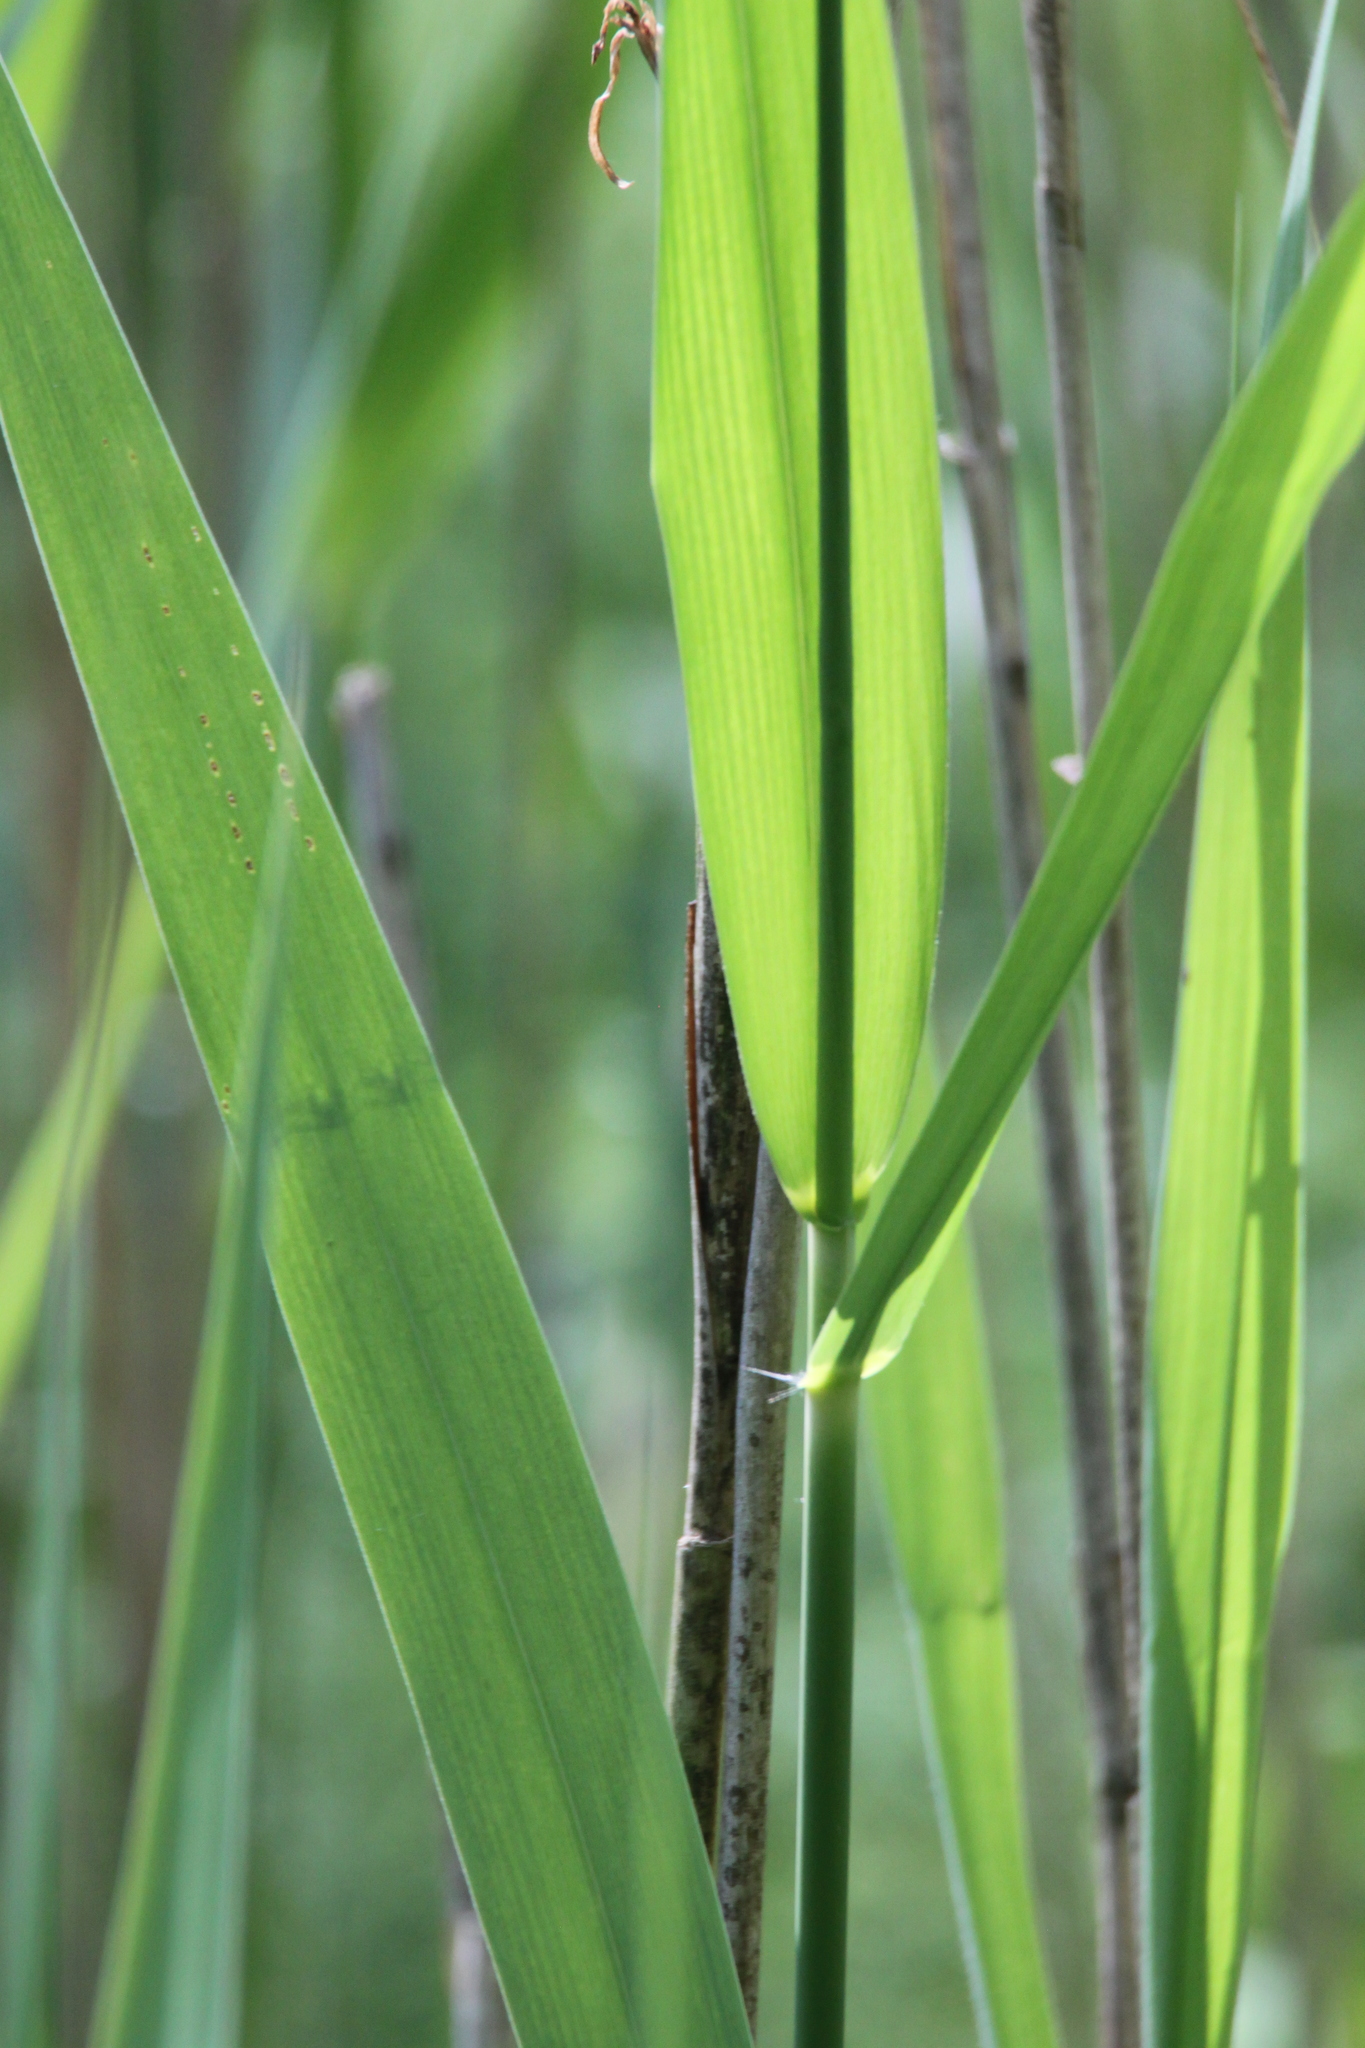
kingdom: Plantae
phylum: Tracheophyta
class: Liliopsida
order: Poales
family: Poaceae
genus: Phragmites
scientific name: Phragmites australis
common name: Common reed
